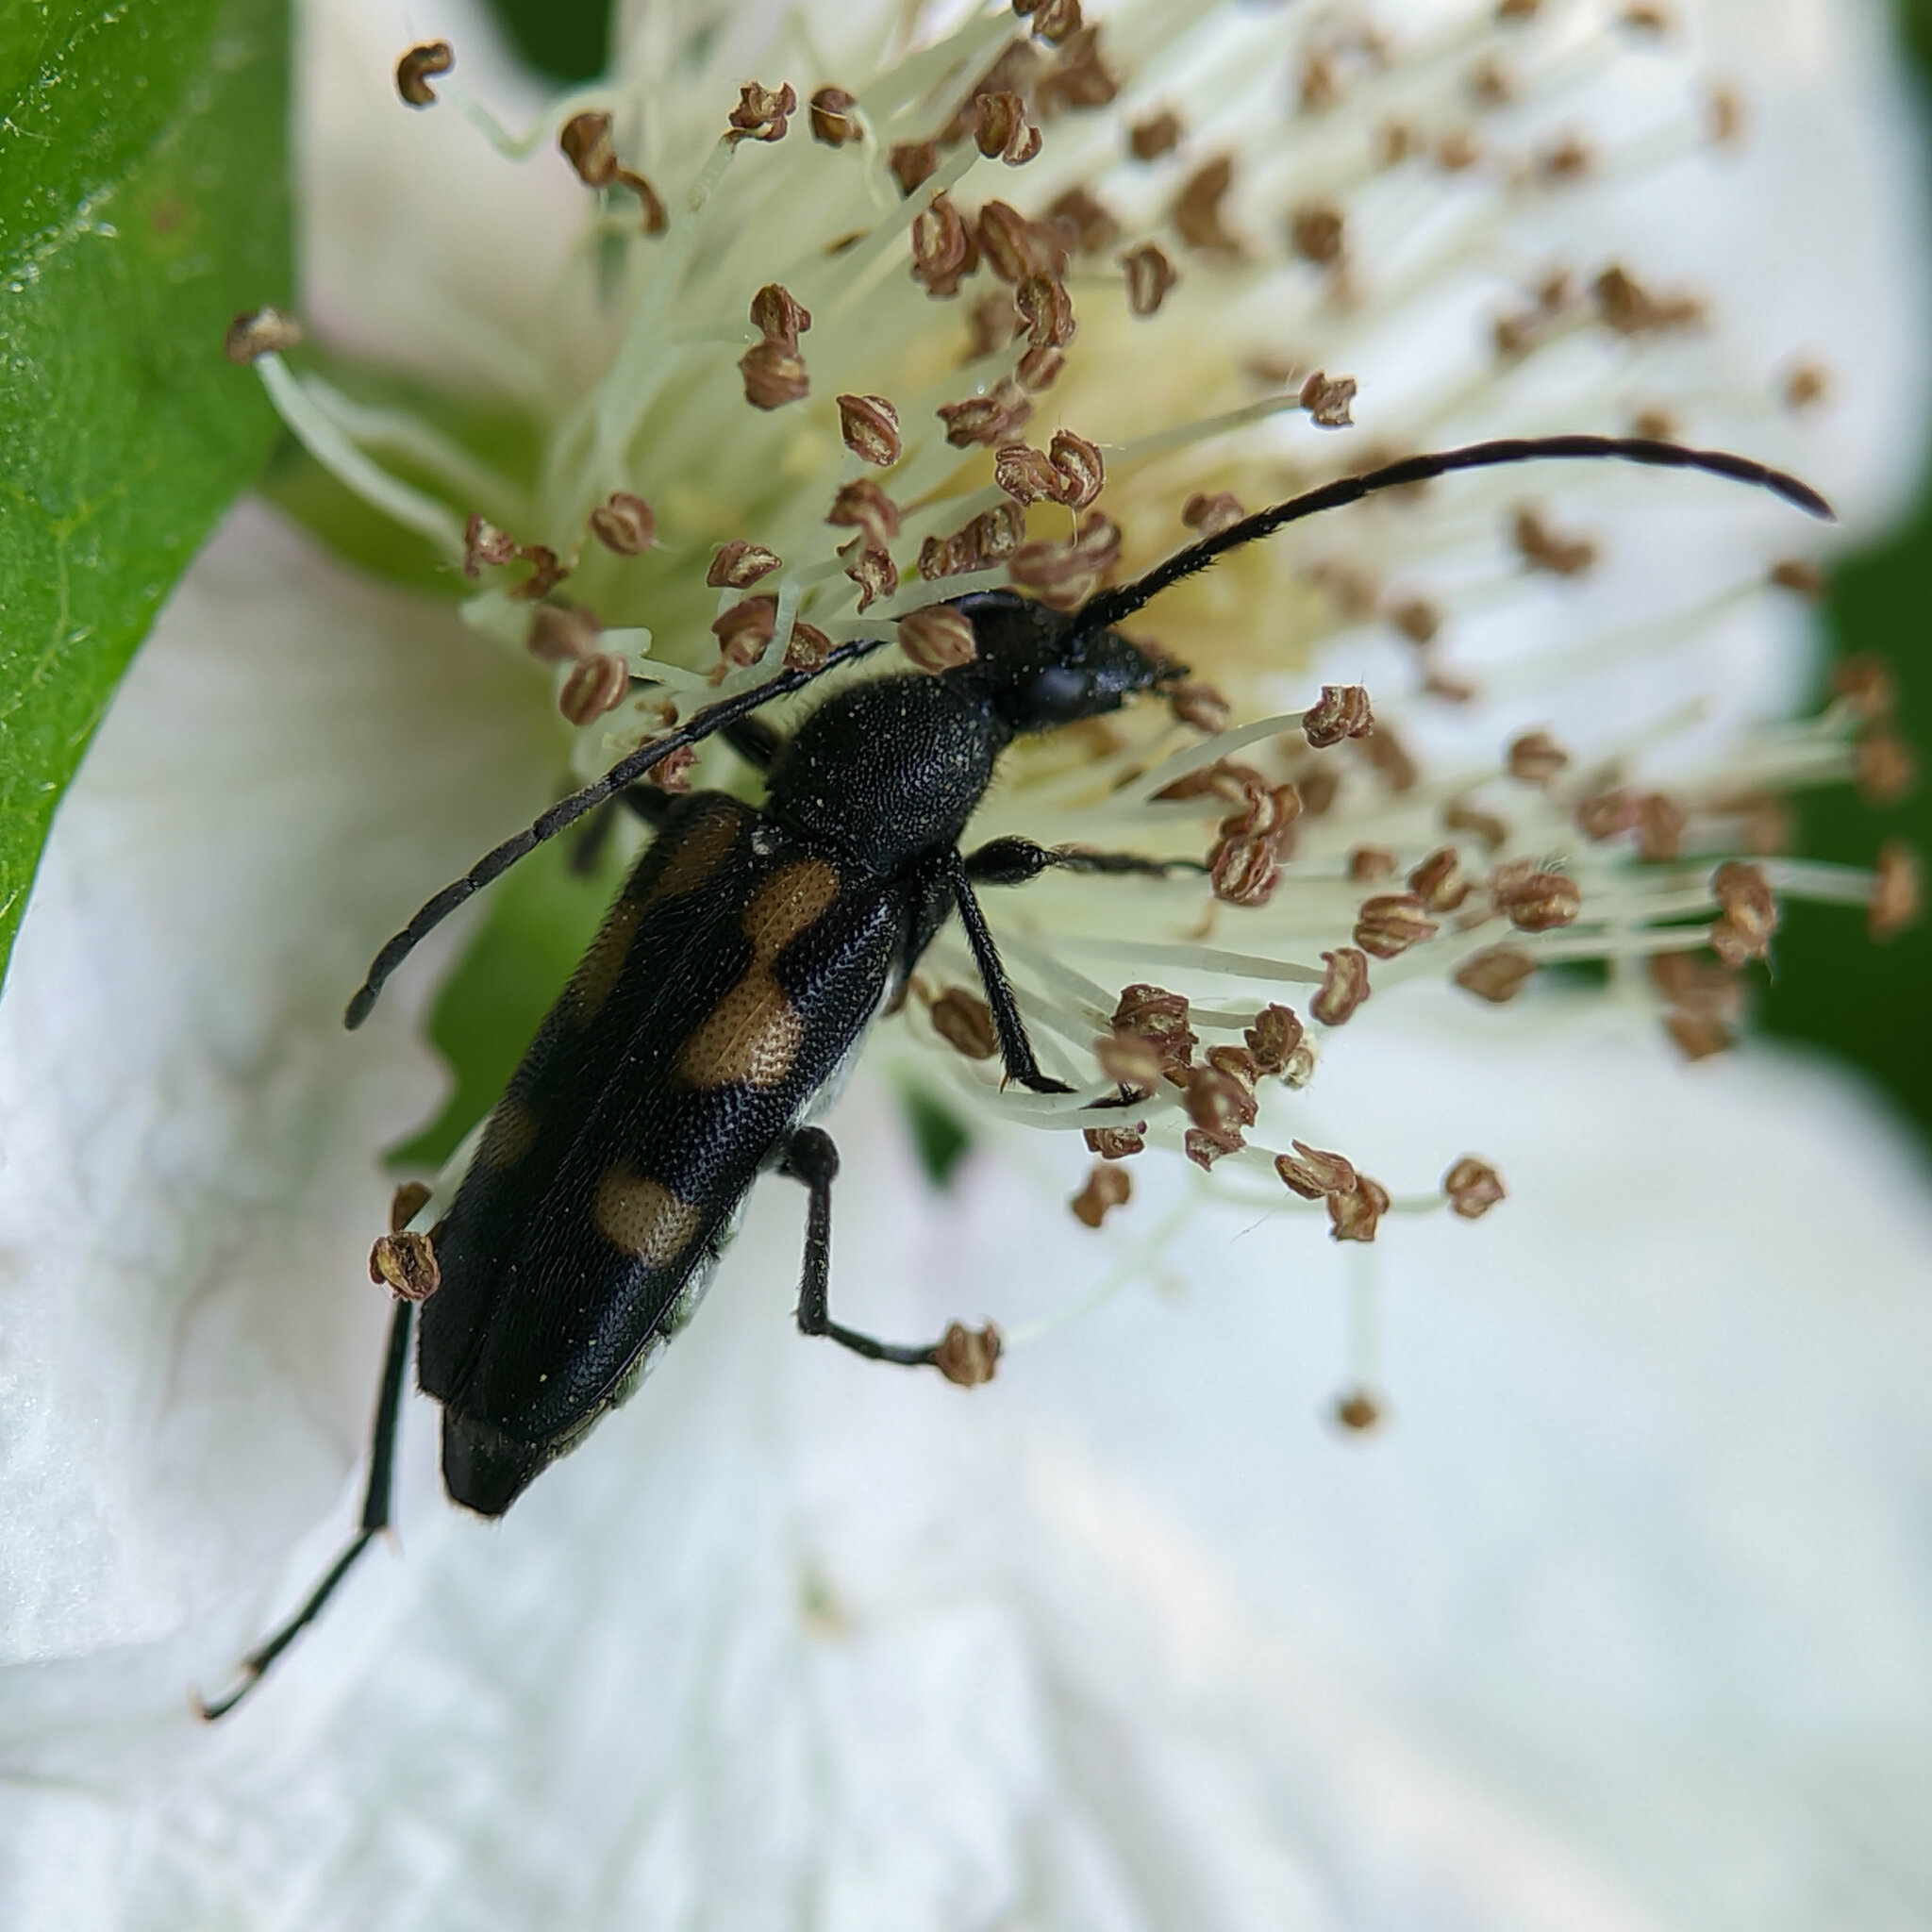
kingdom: Animalia
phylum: Arthropoda
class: Insecta
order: Coleoptera
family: Cerambycidae
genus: Anoplodera
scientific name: Anoplodera sexguttata
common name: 6 spotted longhorn
